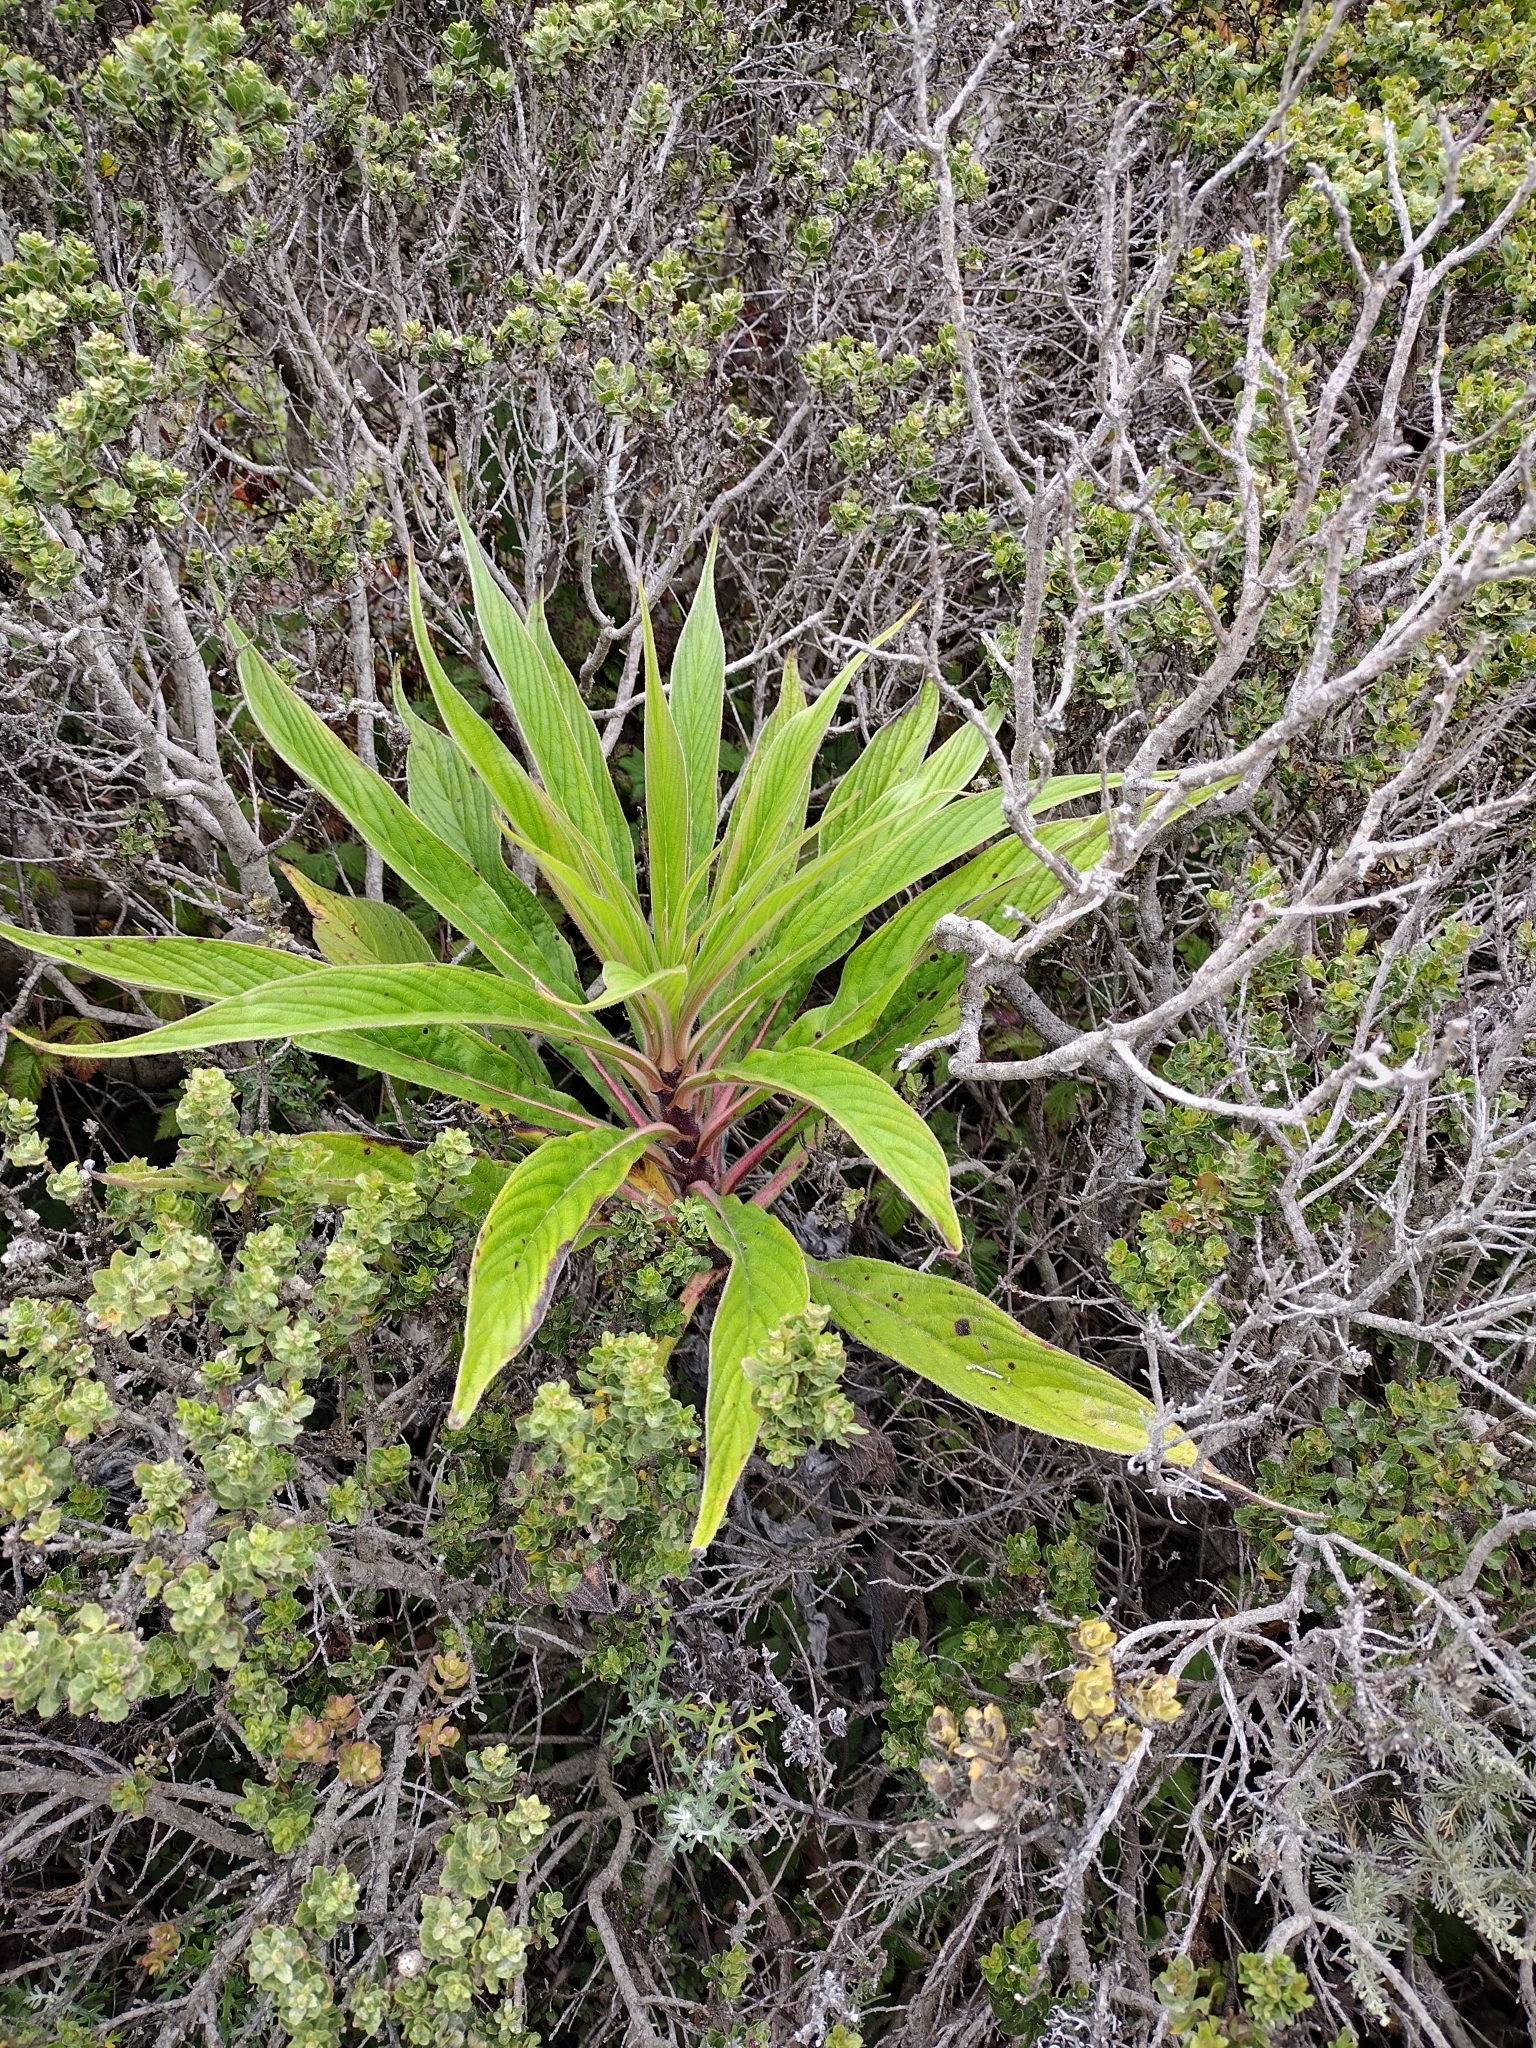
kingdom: Plantae
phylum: Tracheophyta
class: Magnoliopsida
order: Boraginales
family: Boraginaceae
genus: Echium
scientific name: Echium pininana
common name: Giant viper's-bugloss
